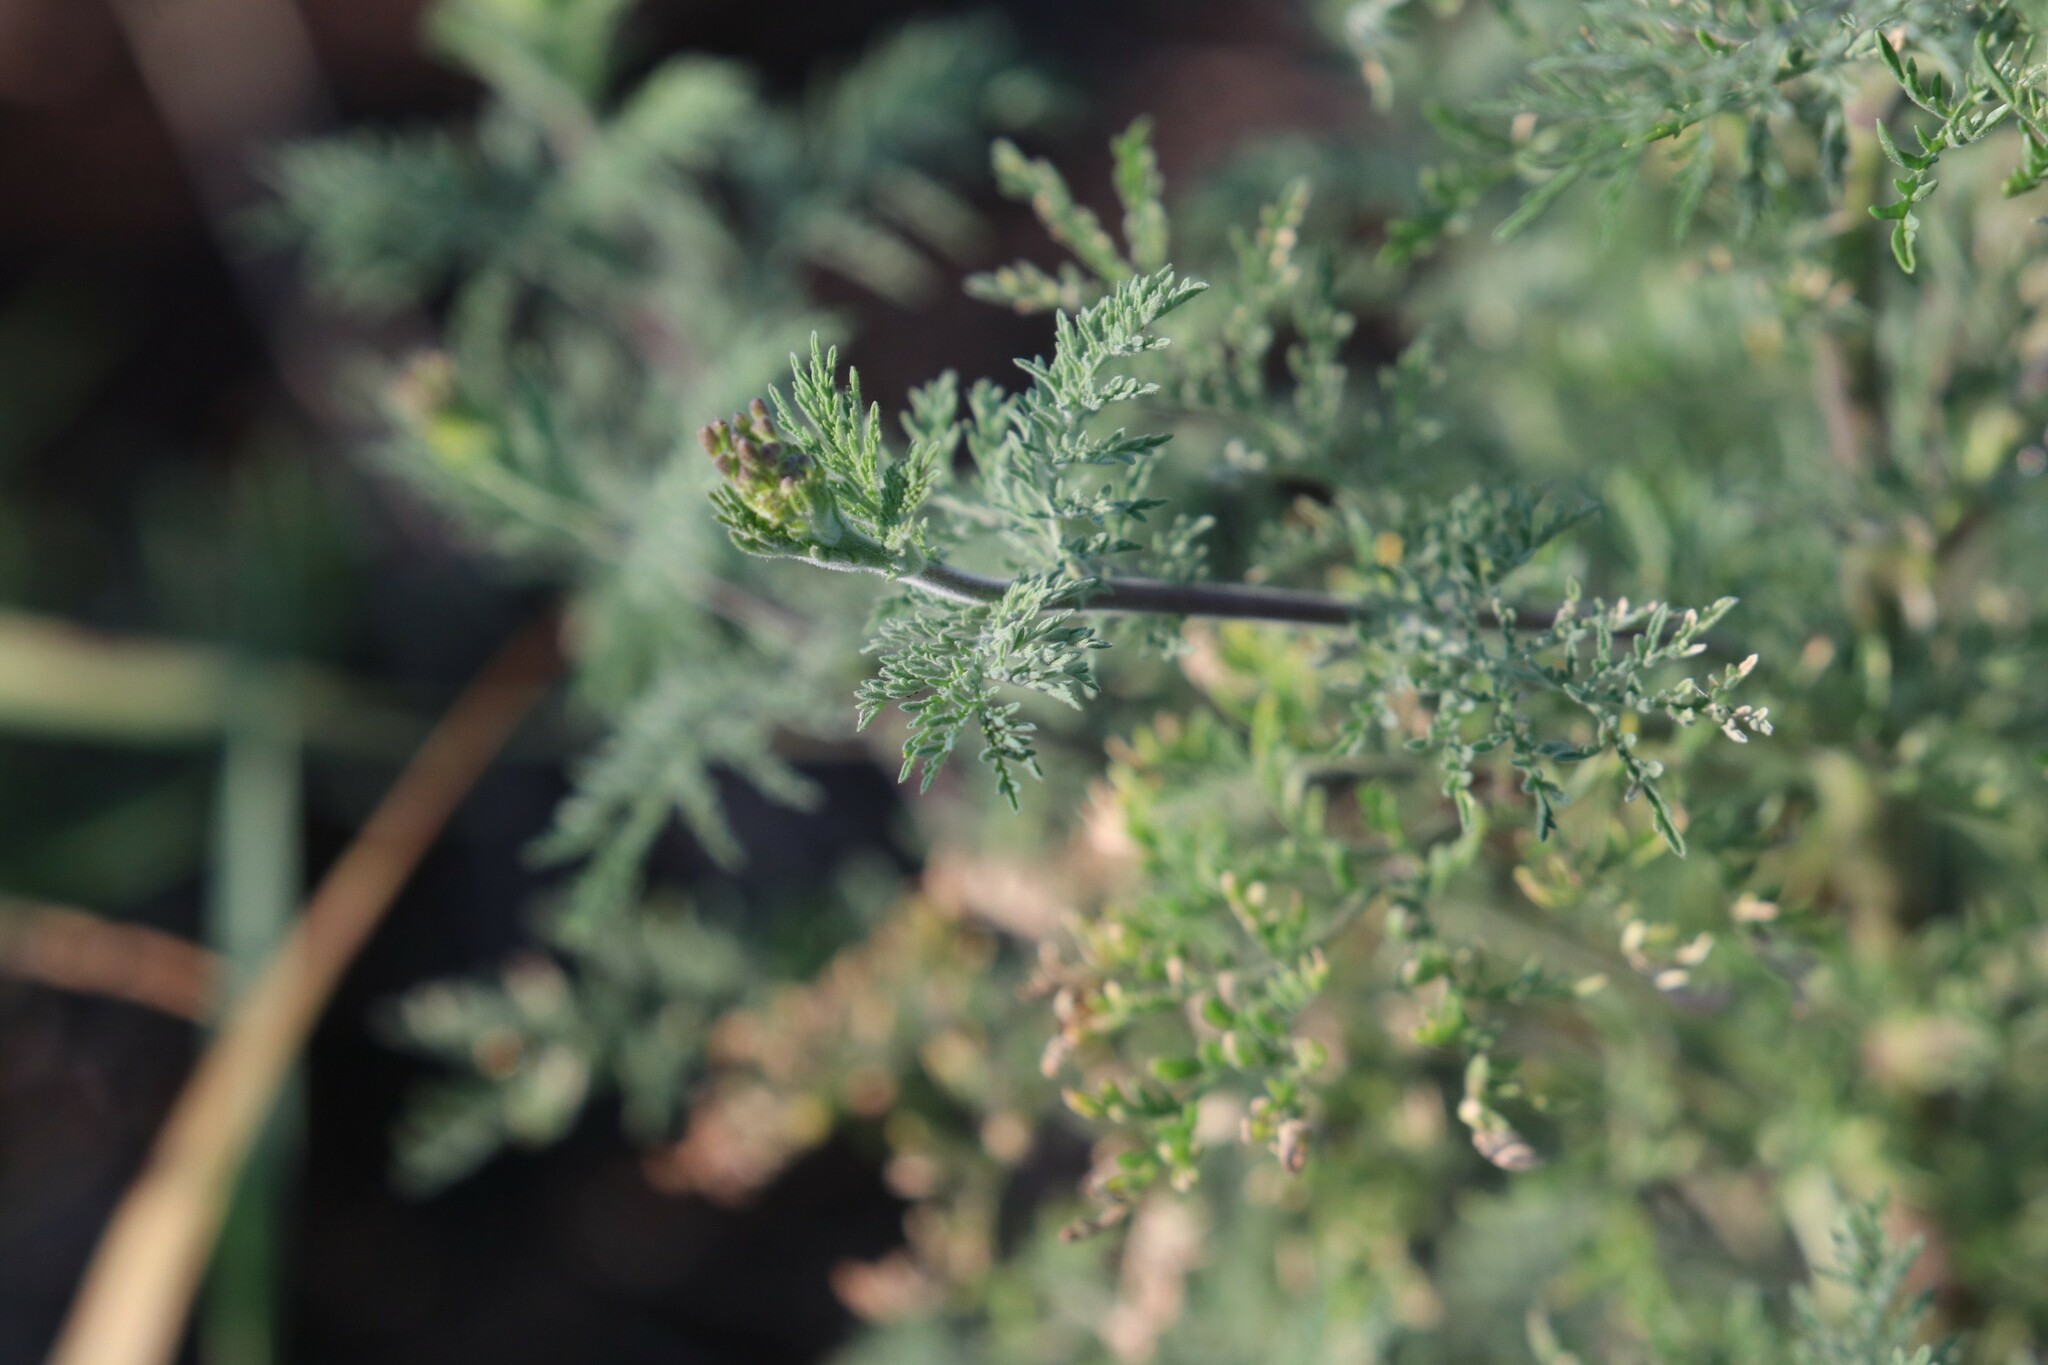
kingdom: Plantae
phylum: Tracheophyta
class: Magnoliopsida
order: Brassicales
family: Brassicaceae
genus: Descurainia
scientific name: Descurainia sophia
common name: Flixweed
